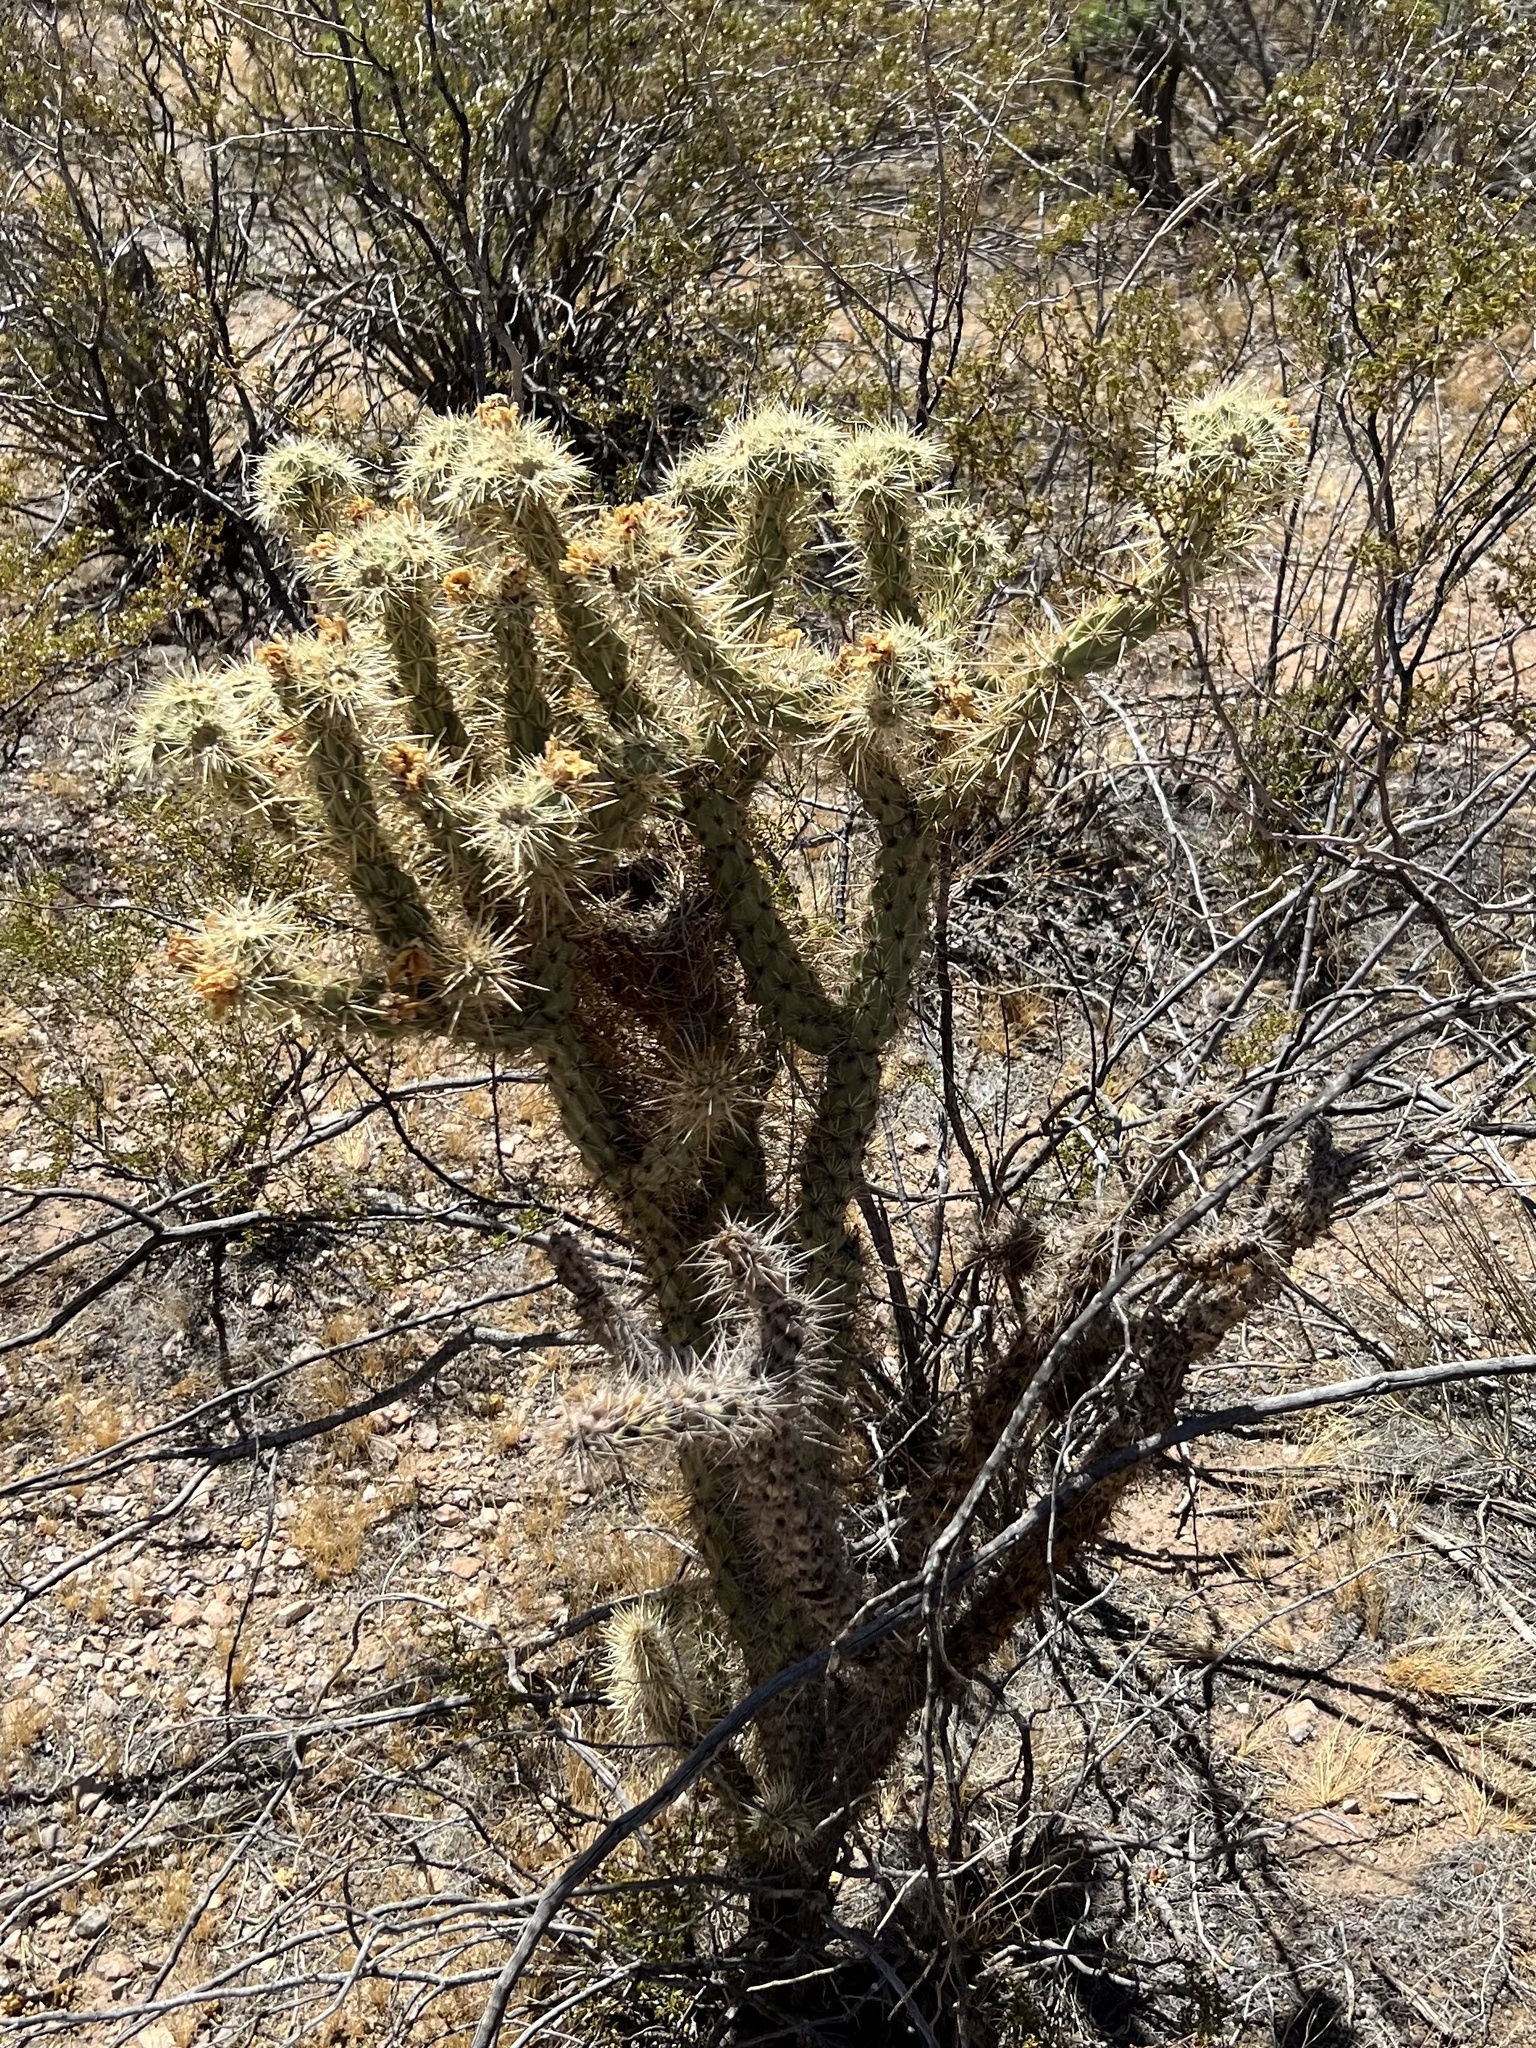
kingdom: Plantae
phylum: Tracheophyta
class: Magnoliopsida
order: Caryophyllales
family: Cactaceae
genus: Cylindropuntia
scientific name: Cylindropuntia echinocarpa
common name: Ground cholla
